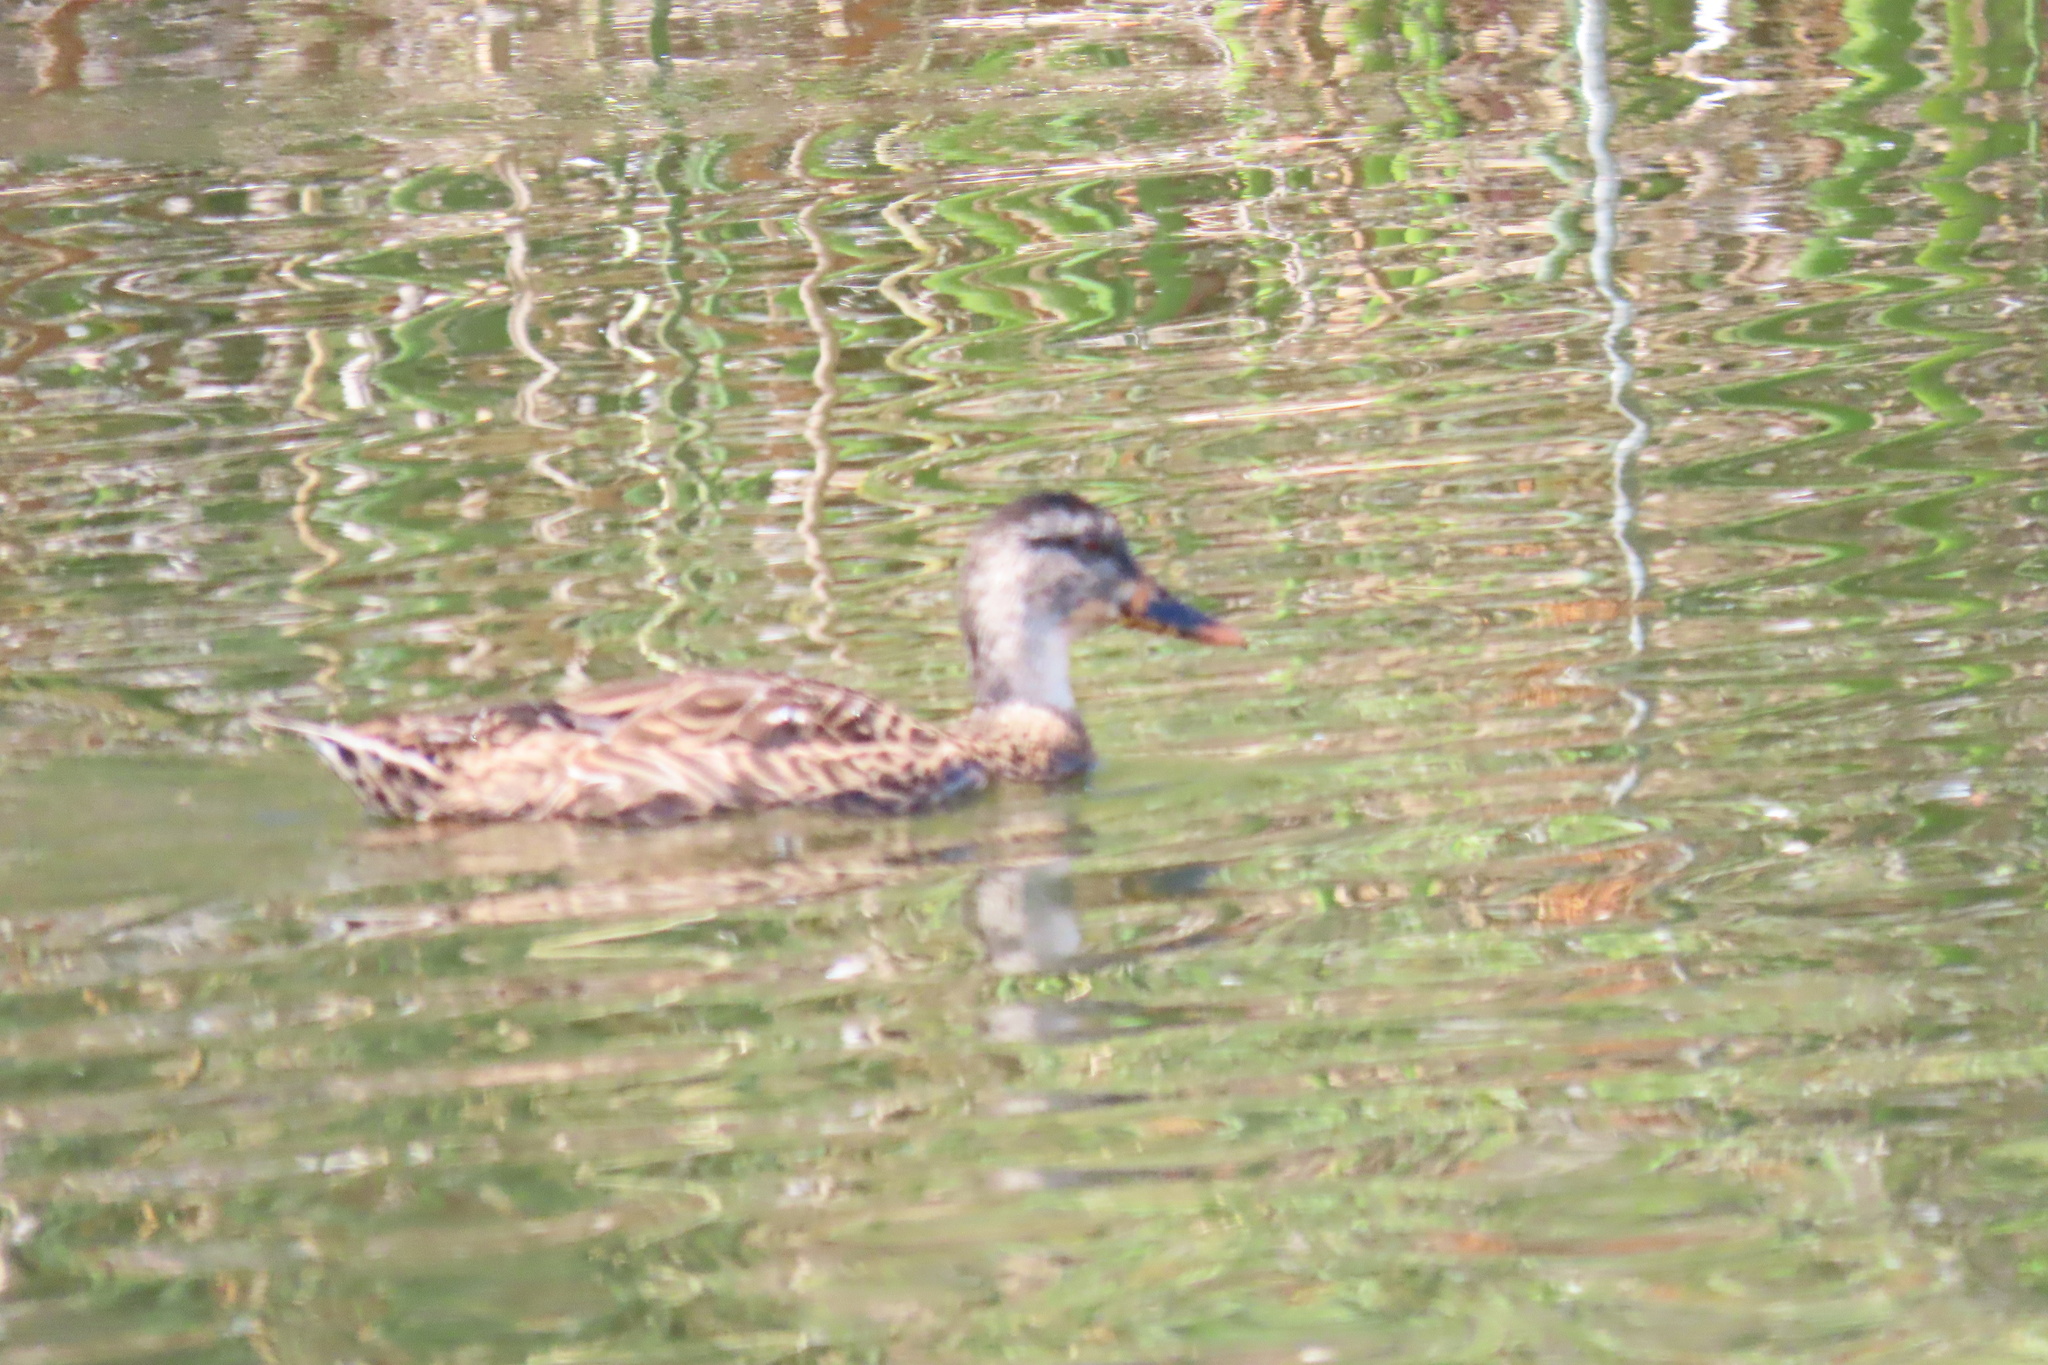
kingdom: Animalia
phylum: Chordata
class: Aves
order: Anseriformes
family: Anatidae
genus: Anas
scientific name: Anas platyrhynchos
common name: Mallard
